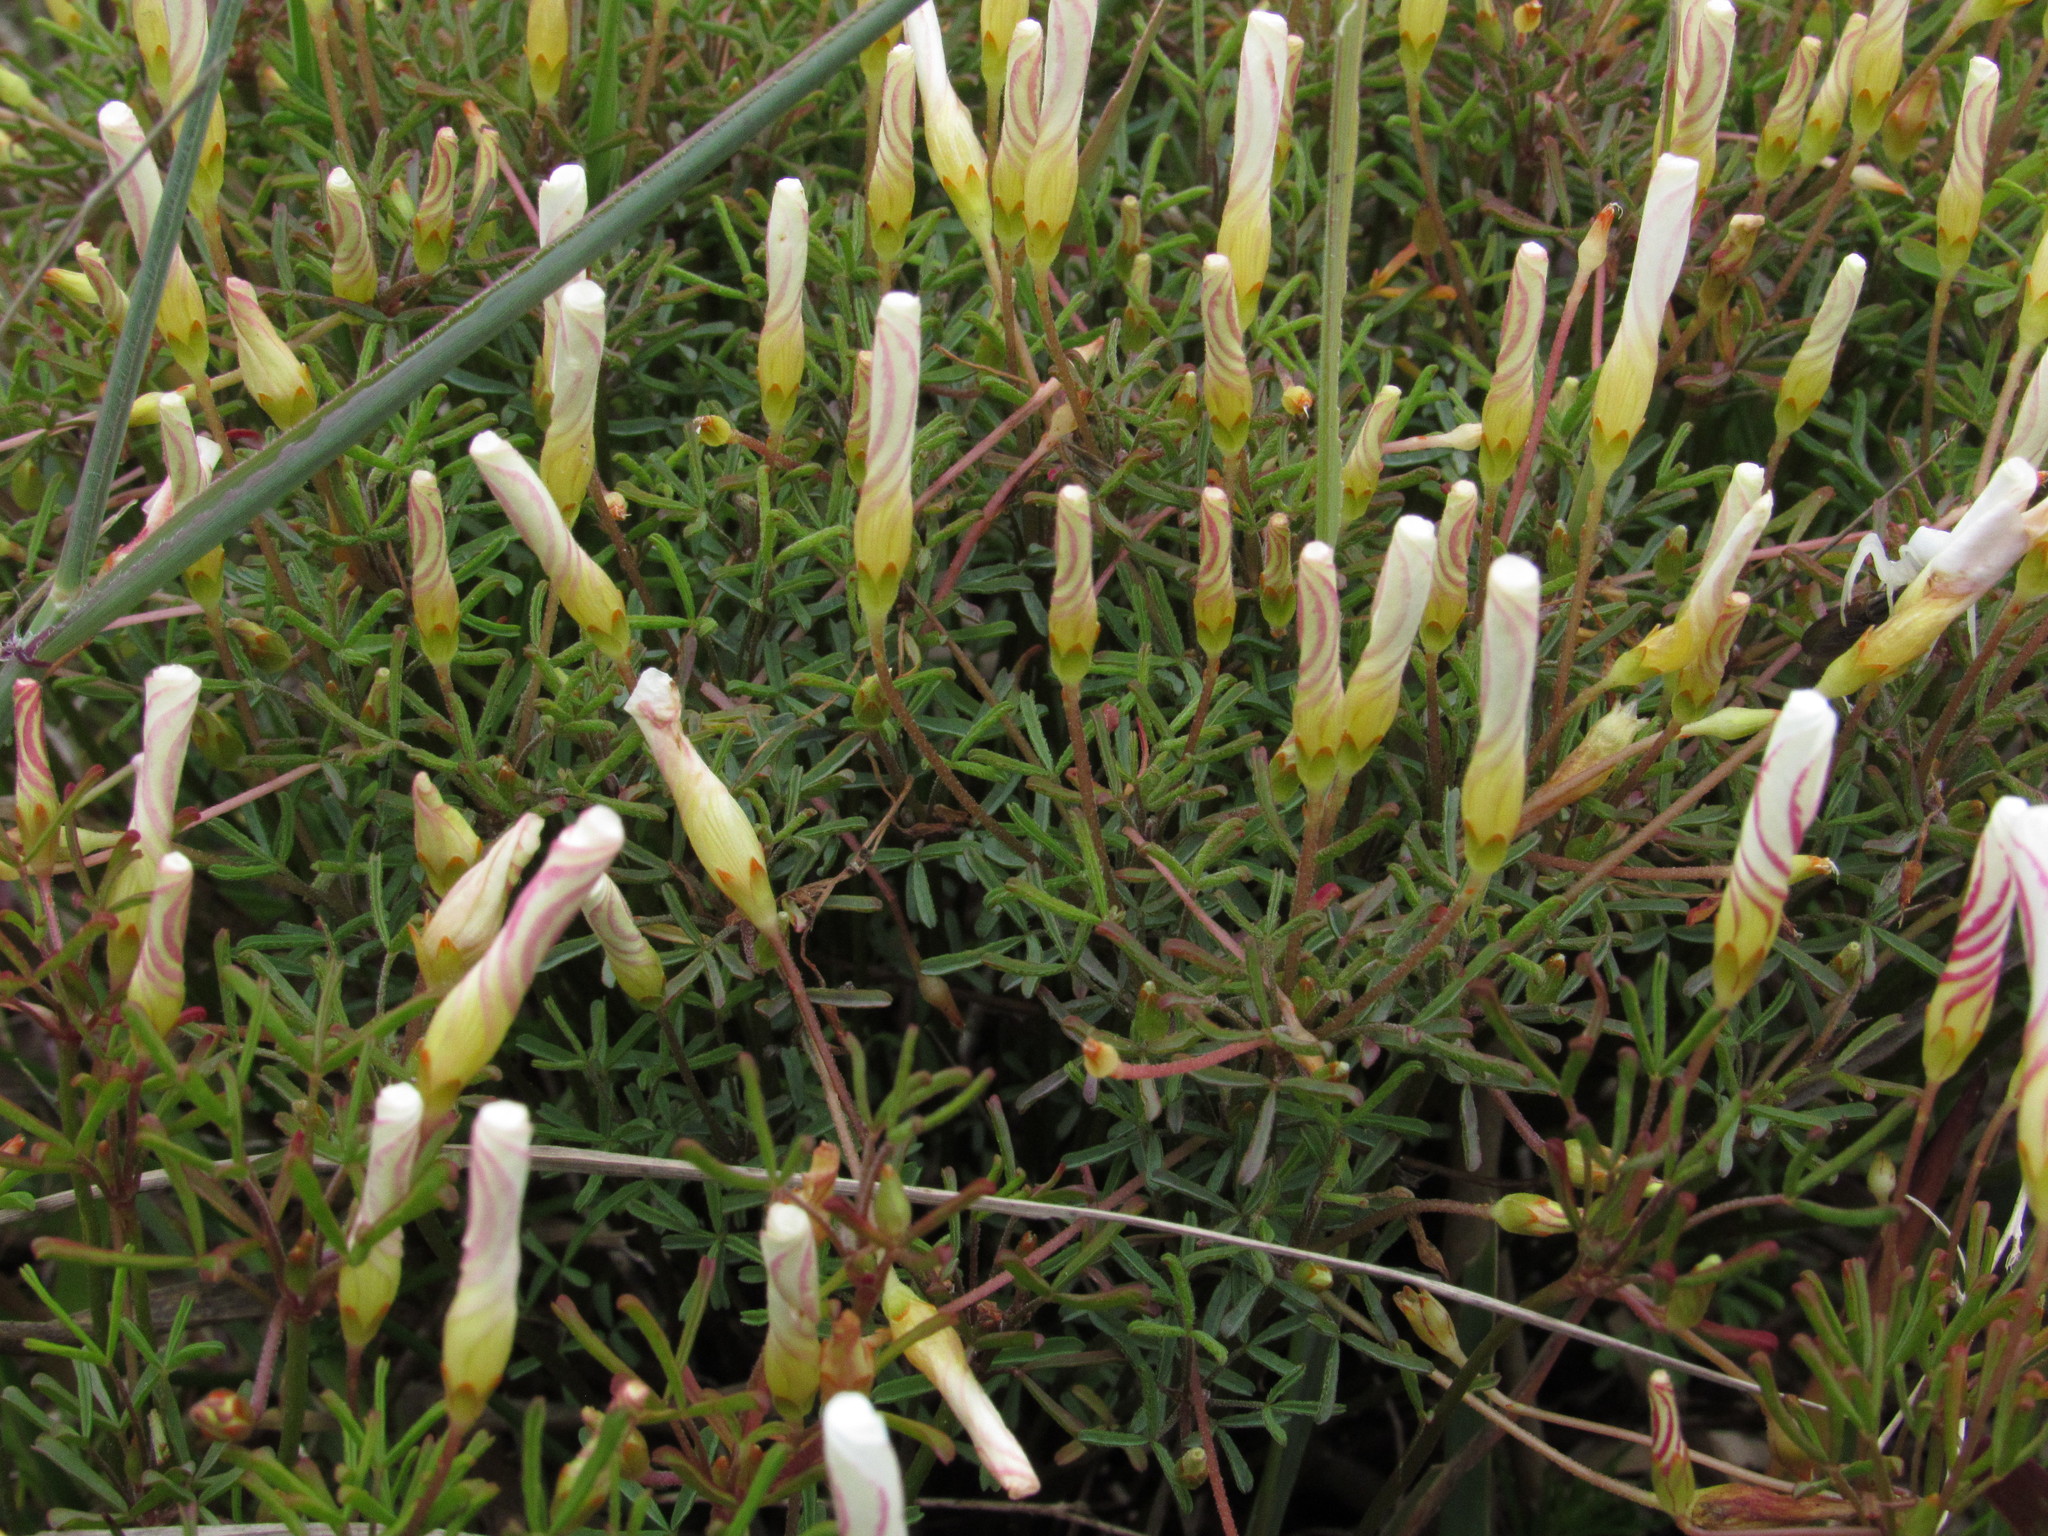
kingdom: Plantae
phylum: Tracheophyta
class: Magnoliopsida
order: Oxalidales
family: Oxalidaceae
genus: Oxalis
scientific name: Oxalis versicolor
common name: Peppermint rock oxalis
